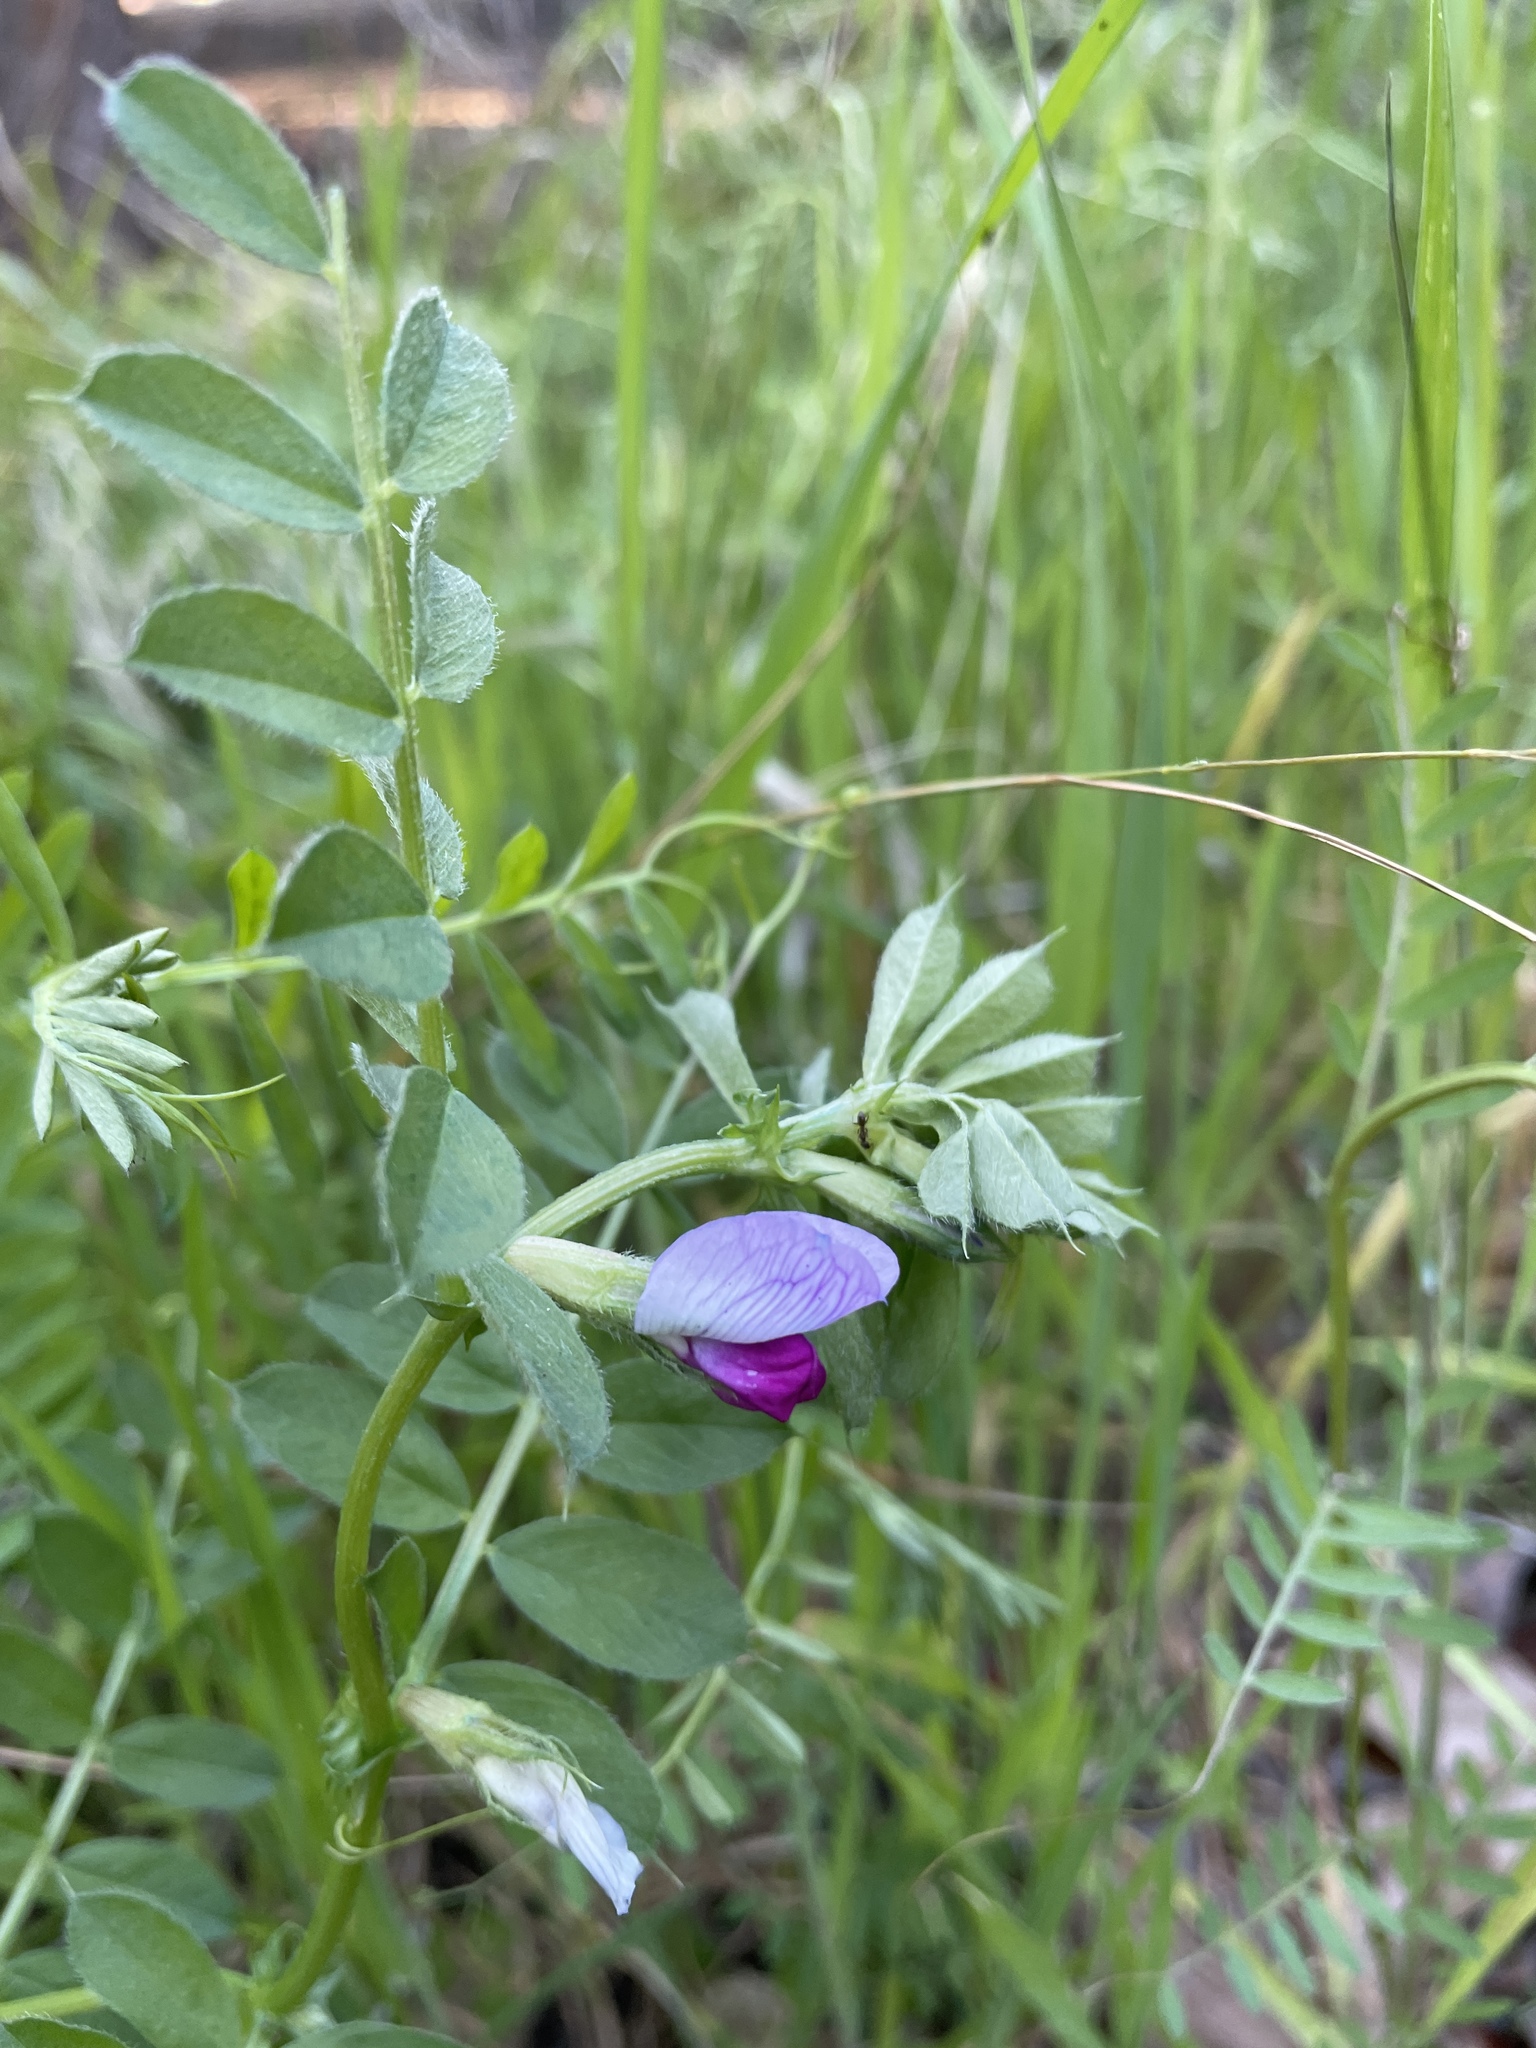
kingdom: Plantae
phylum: Tracheophyta
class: Magnoliopsida
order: Fabales
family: Fabaceae
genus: Vicia
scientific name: Vicia sativa
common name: Garden vetch
